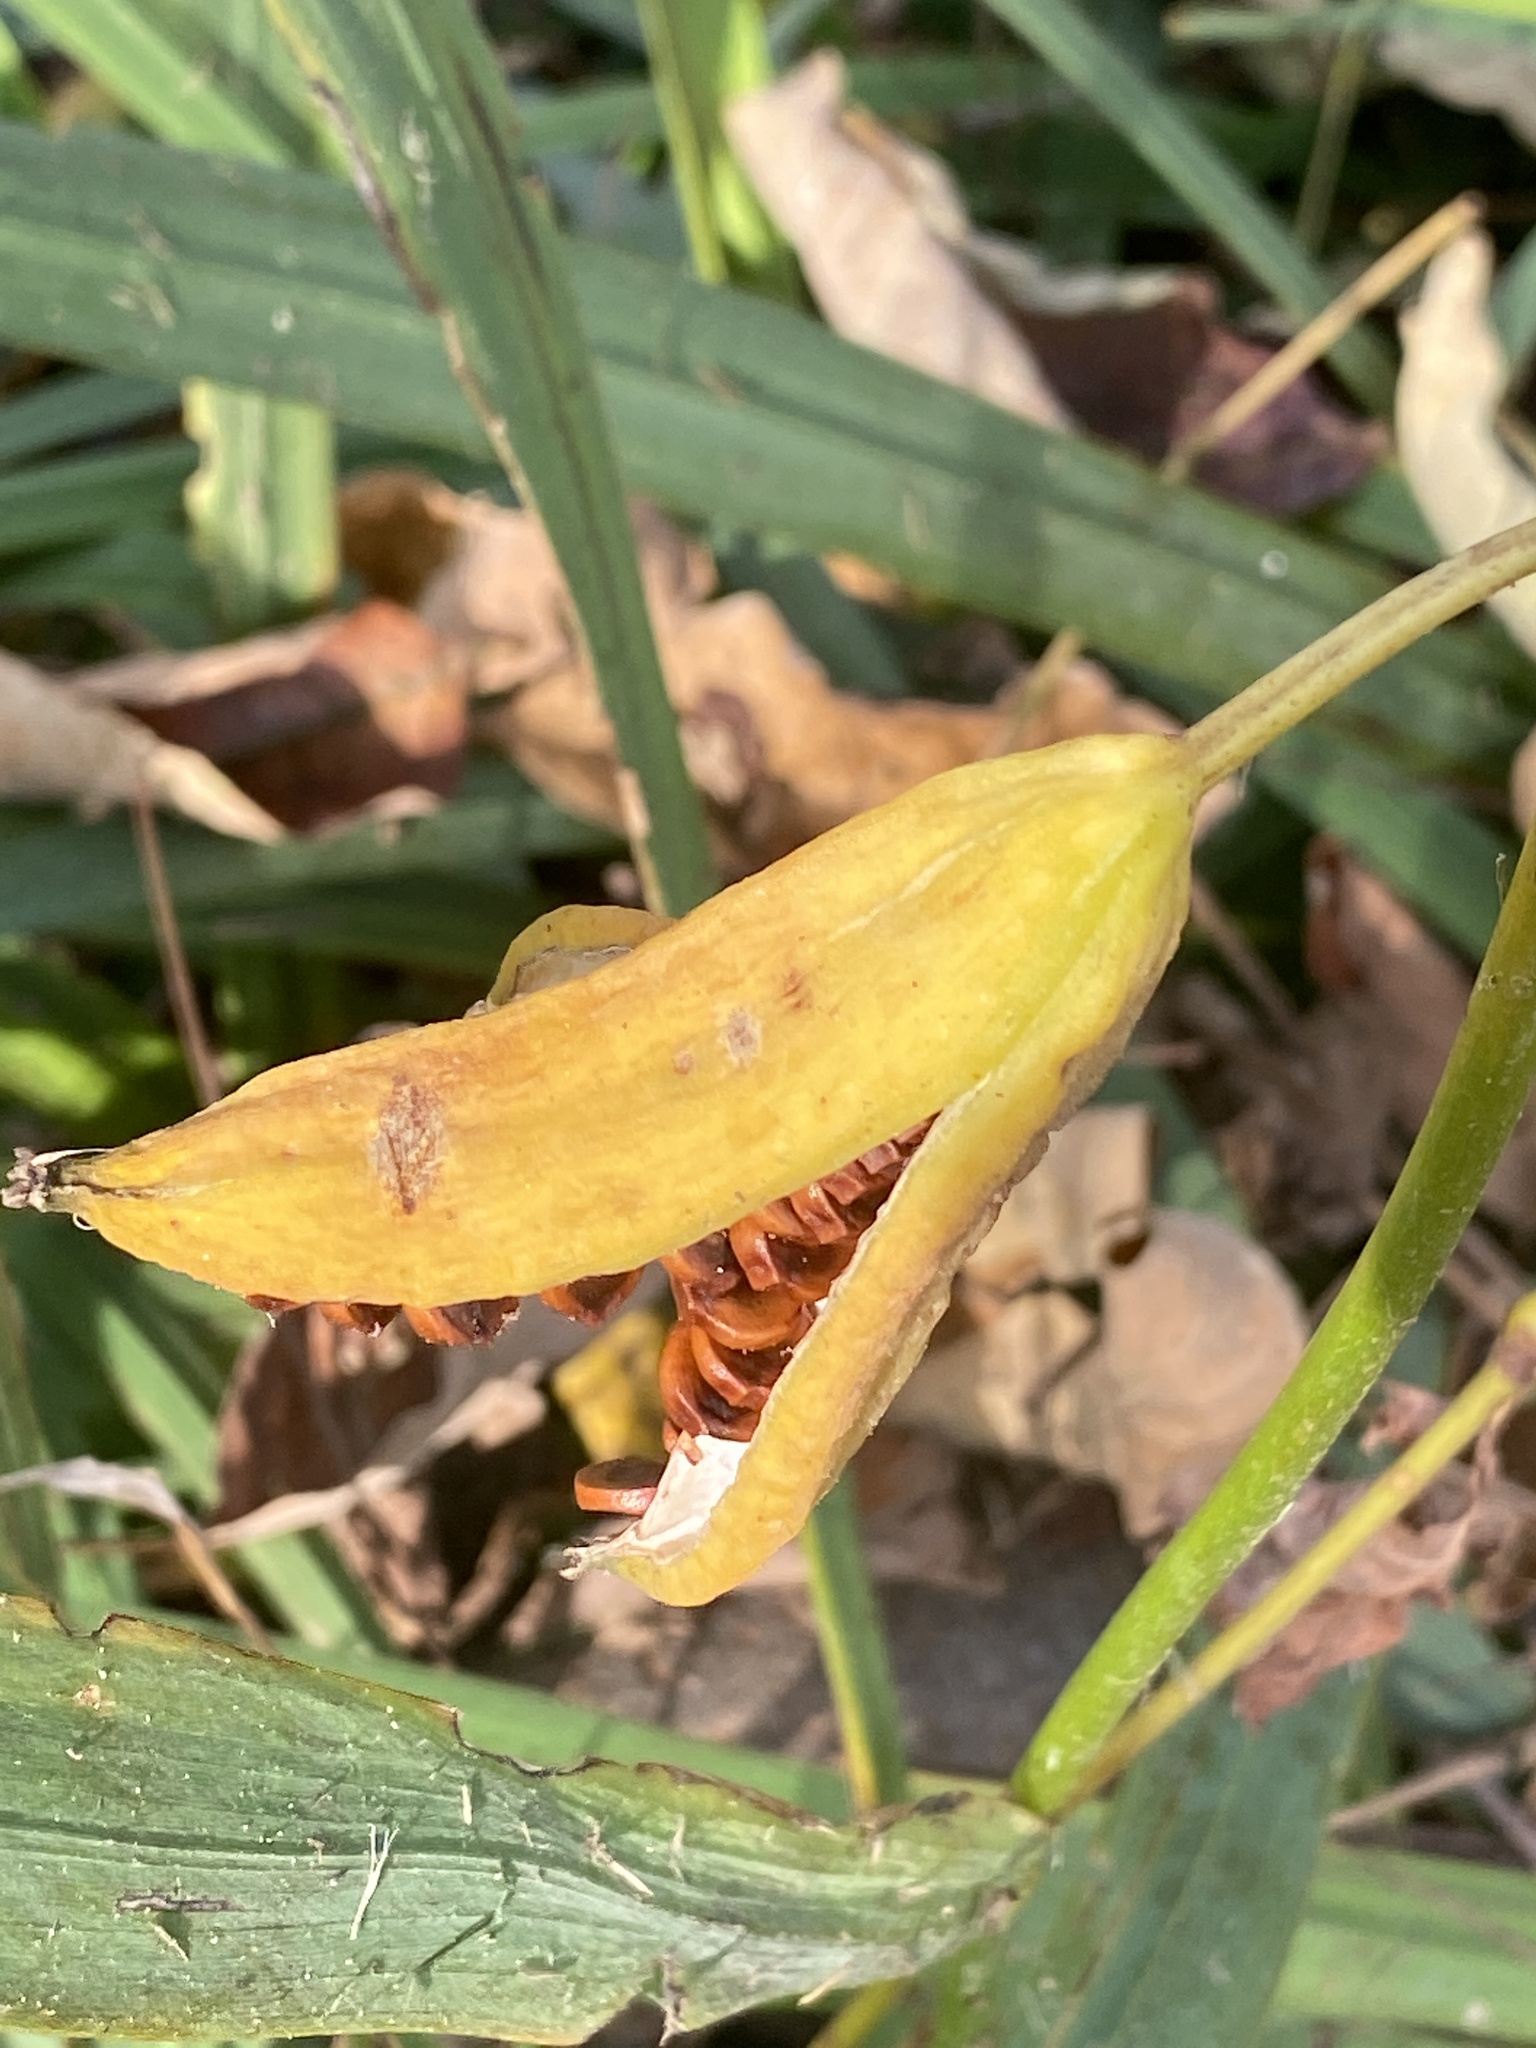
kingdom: Plantae
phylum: Tracheophyta
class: Liliopsida
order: Asparagales
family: Iridaceae
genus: Iris
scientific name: Iris pseudacorus
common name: Yellow flag
